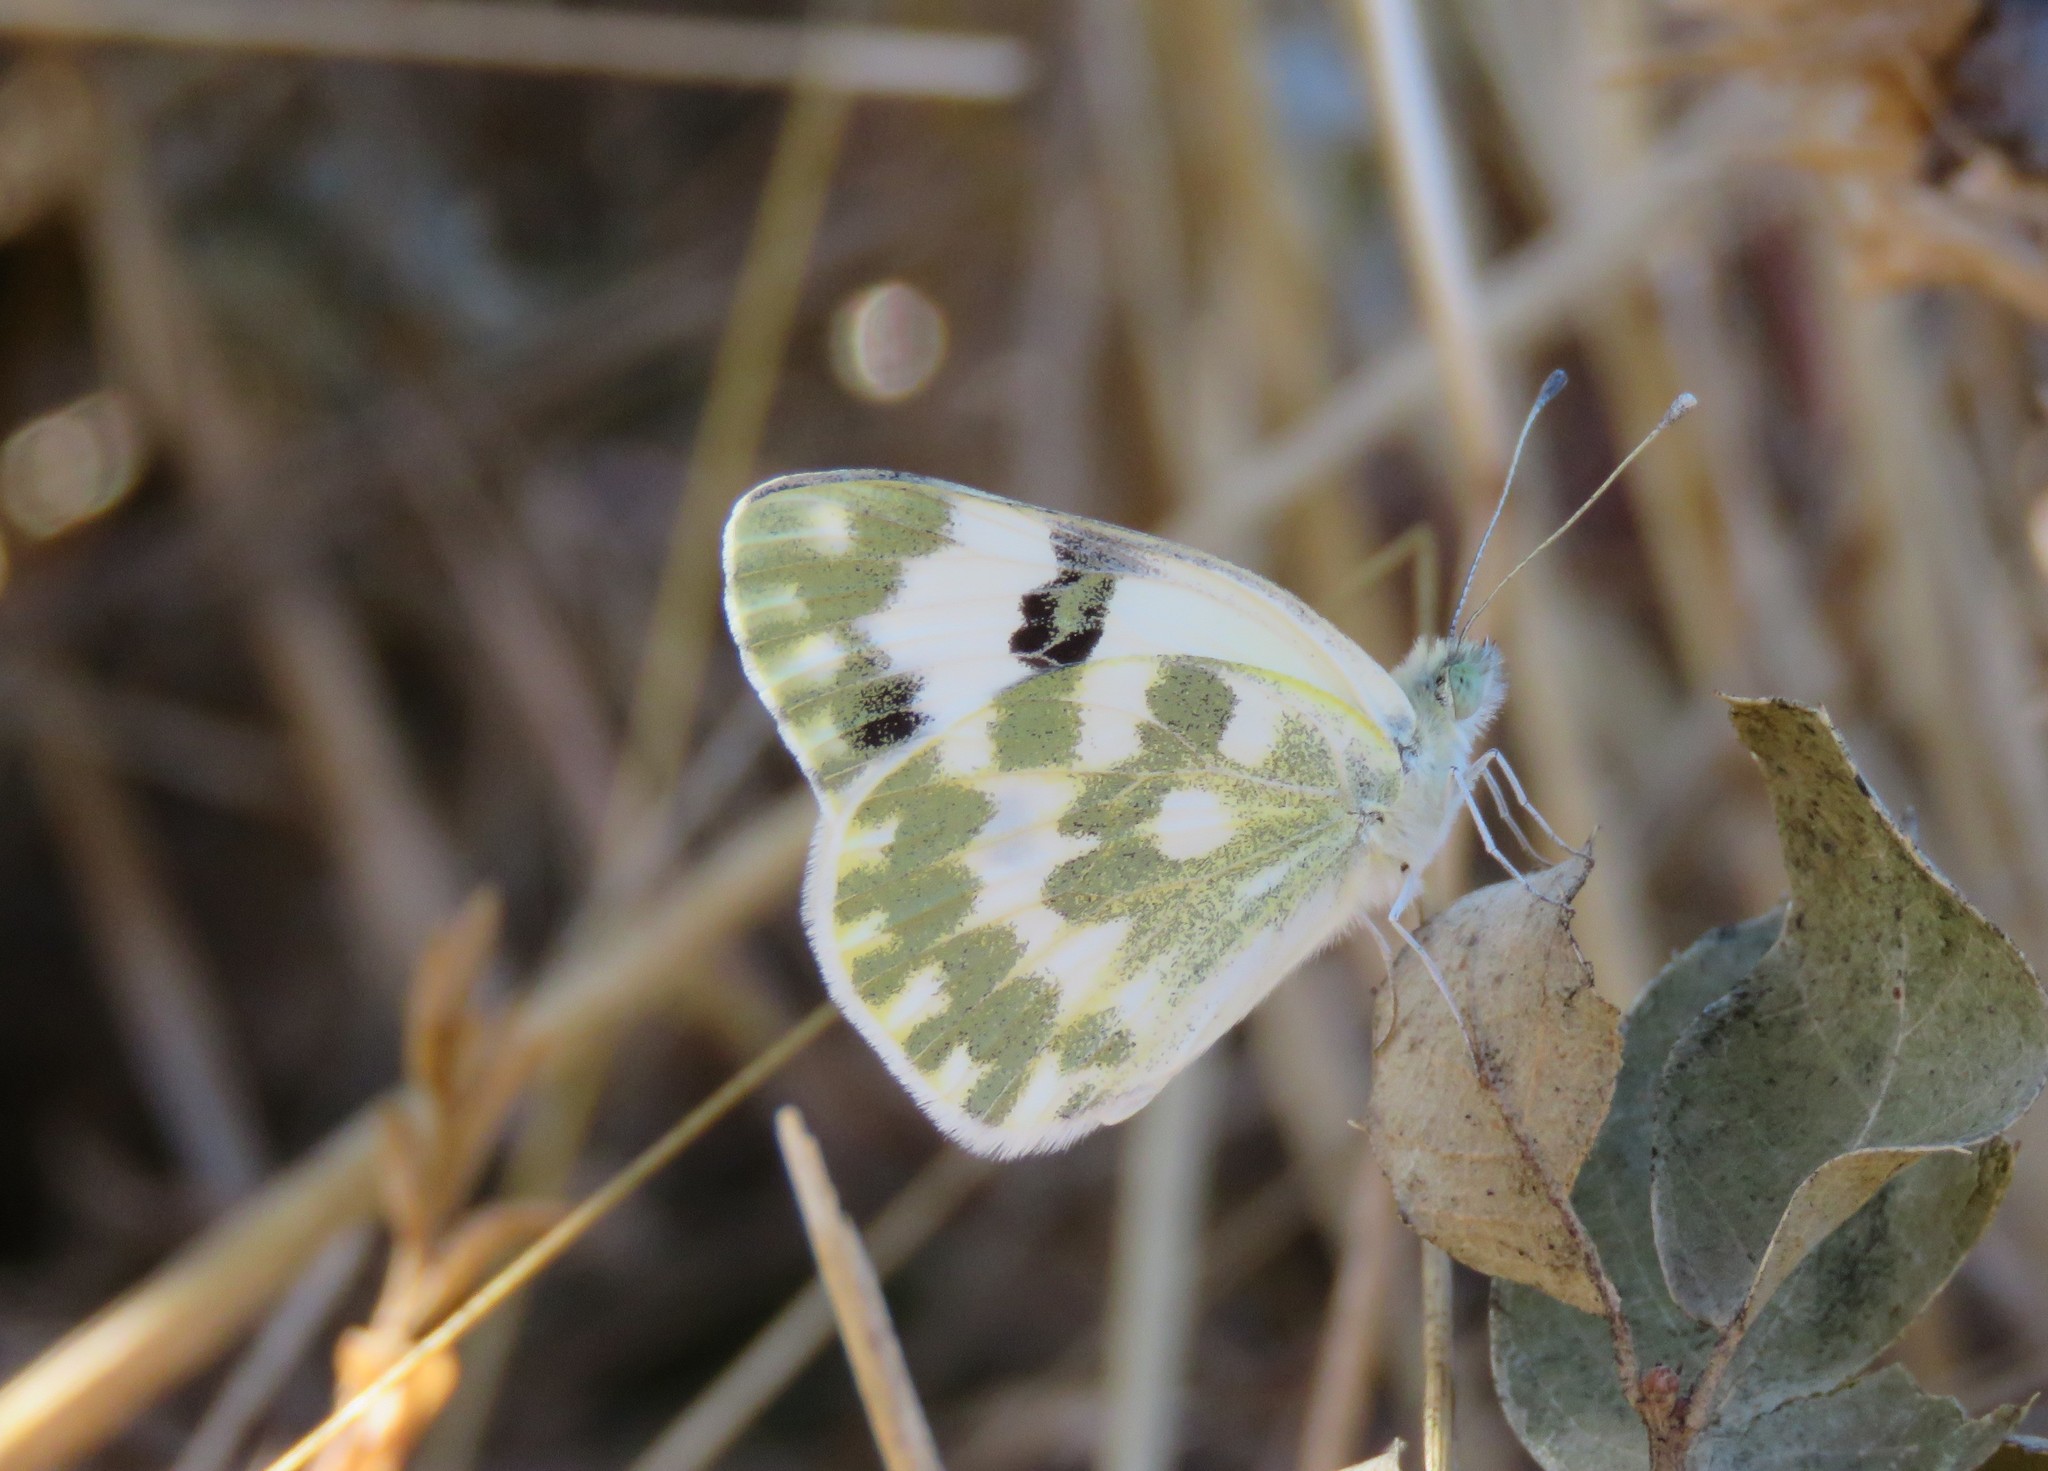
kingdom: Animalia
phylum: Arthropoda
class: Insecta
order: Lepidoptera
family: Pieridae
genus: Pontia
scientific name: Pontia daplidice
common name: Bath white
